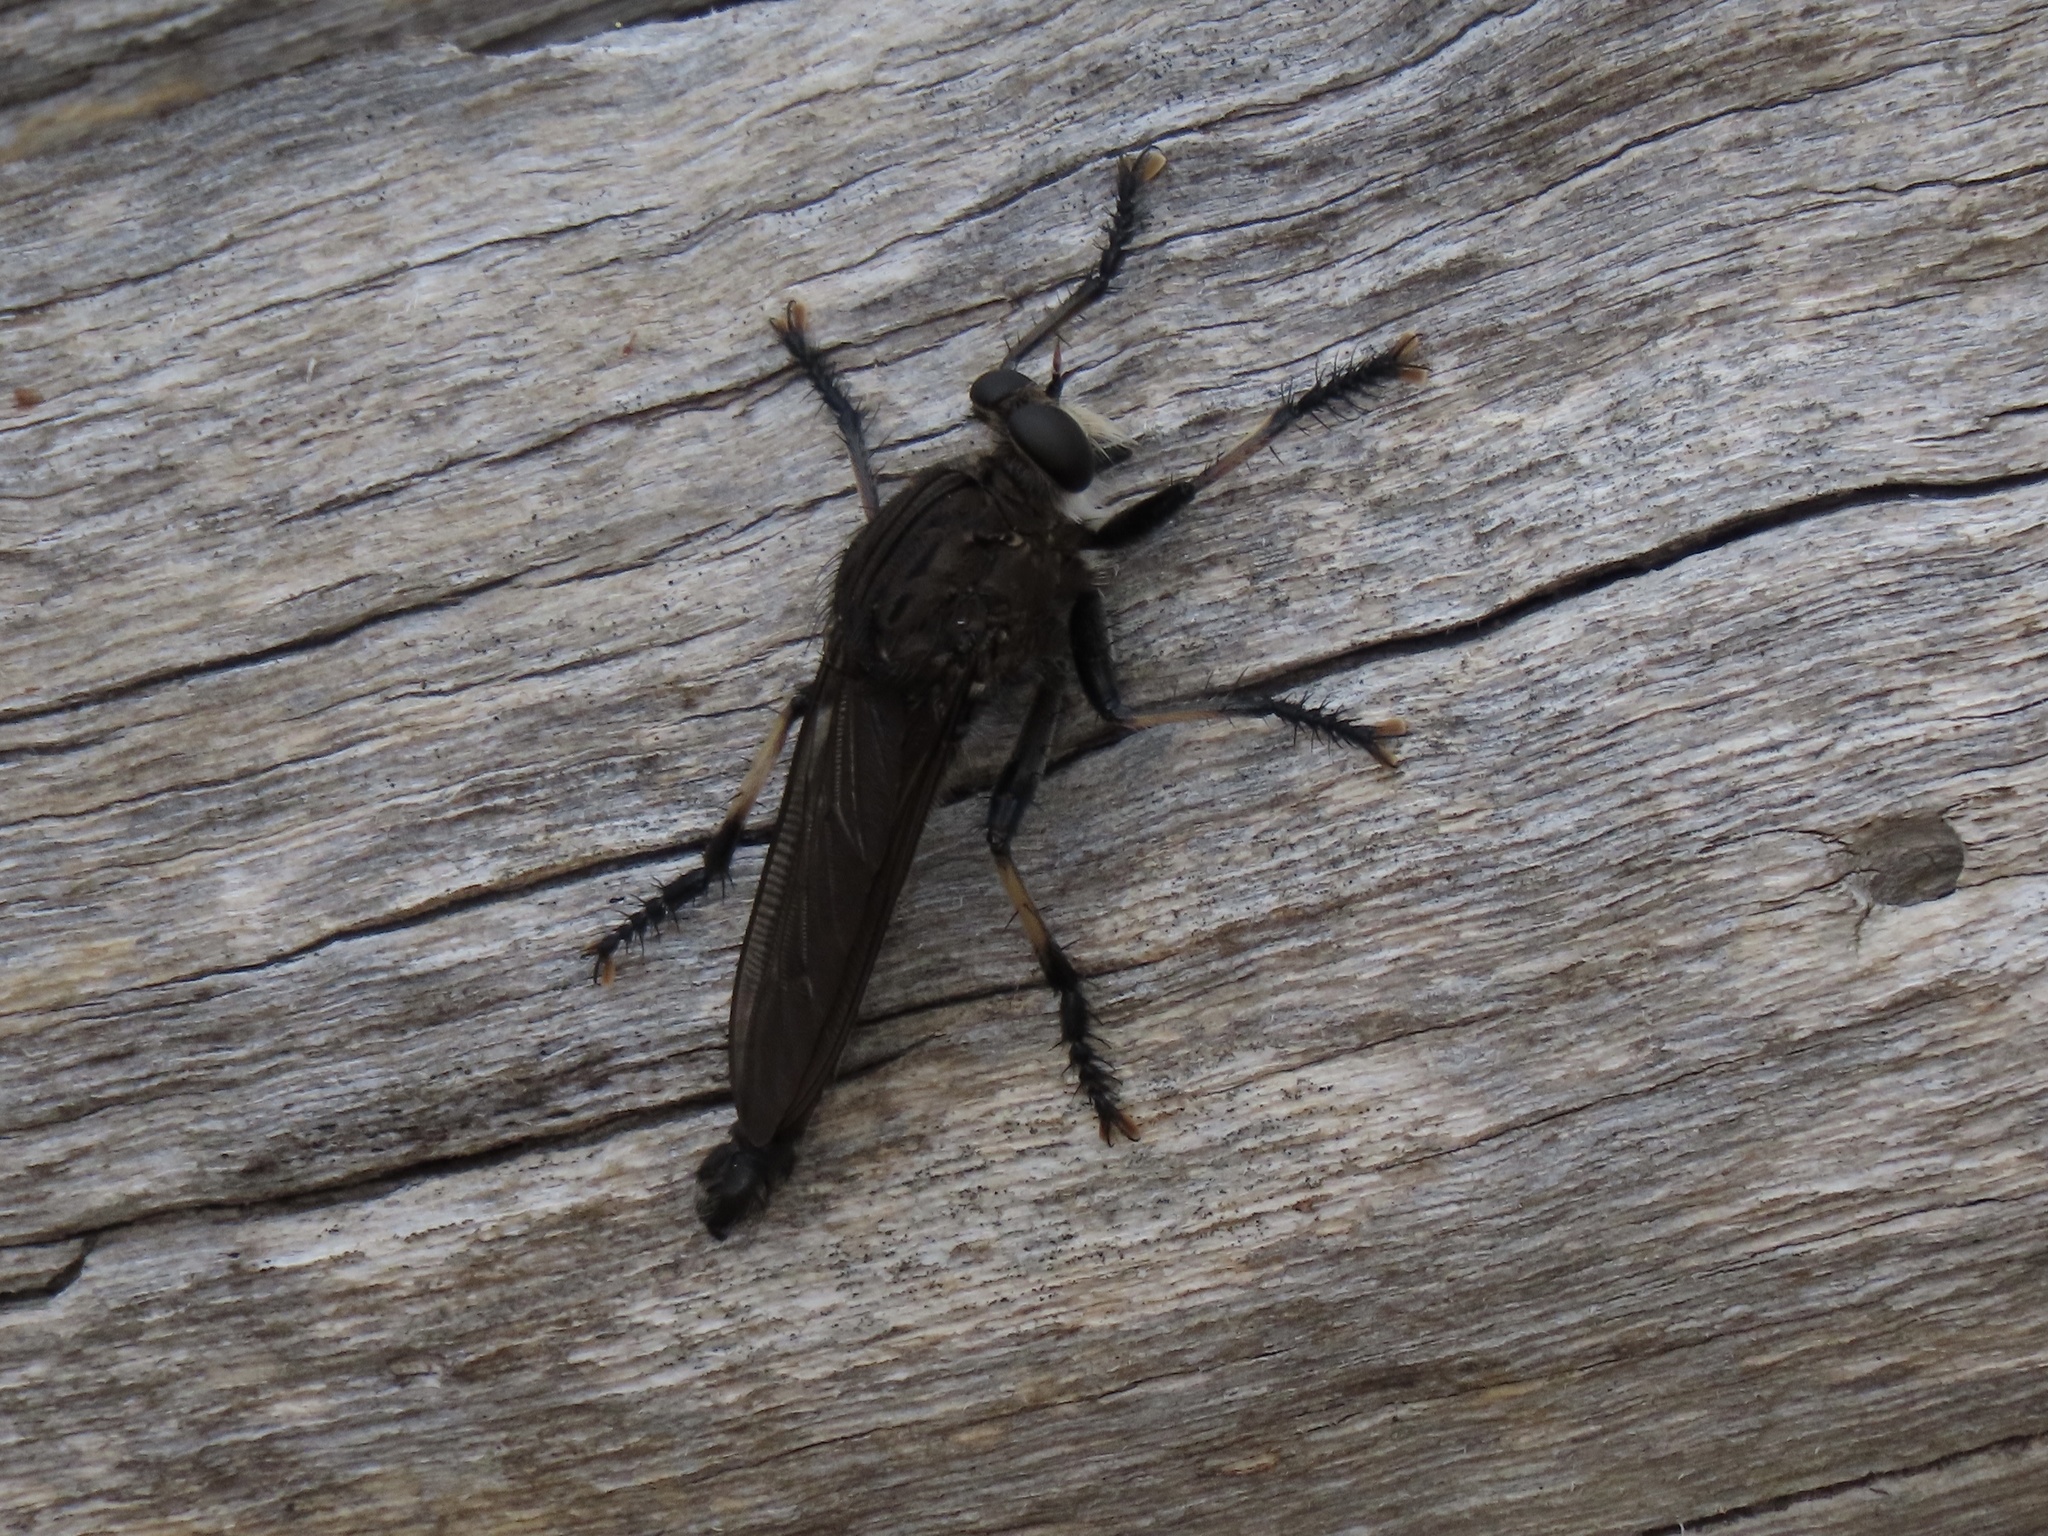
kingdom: Animalia
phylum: Arthropoda
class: Insecta
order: Diptera
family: Asilidae
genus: Mauropteron
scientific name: Mauropteron pelago
